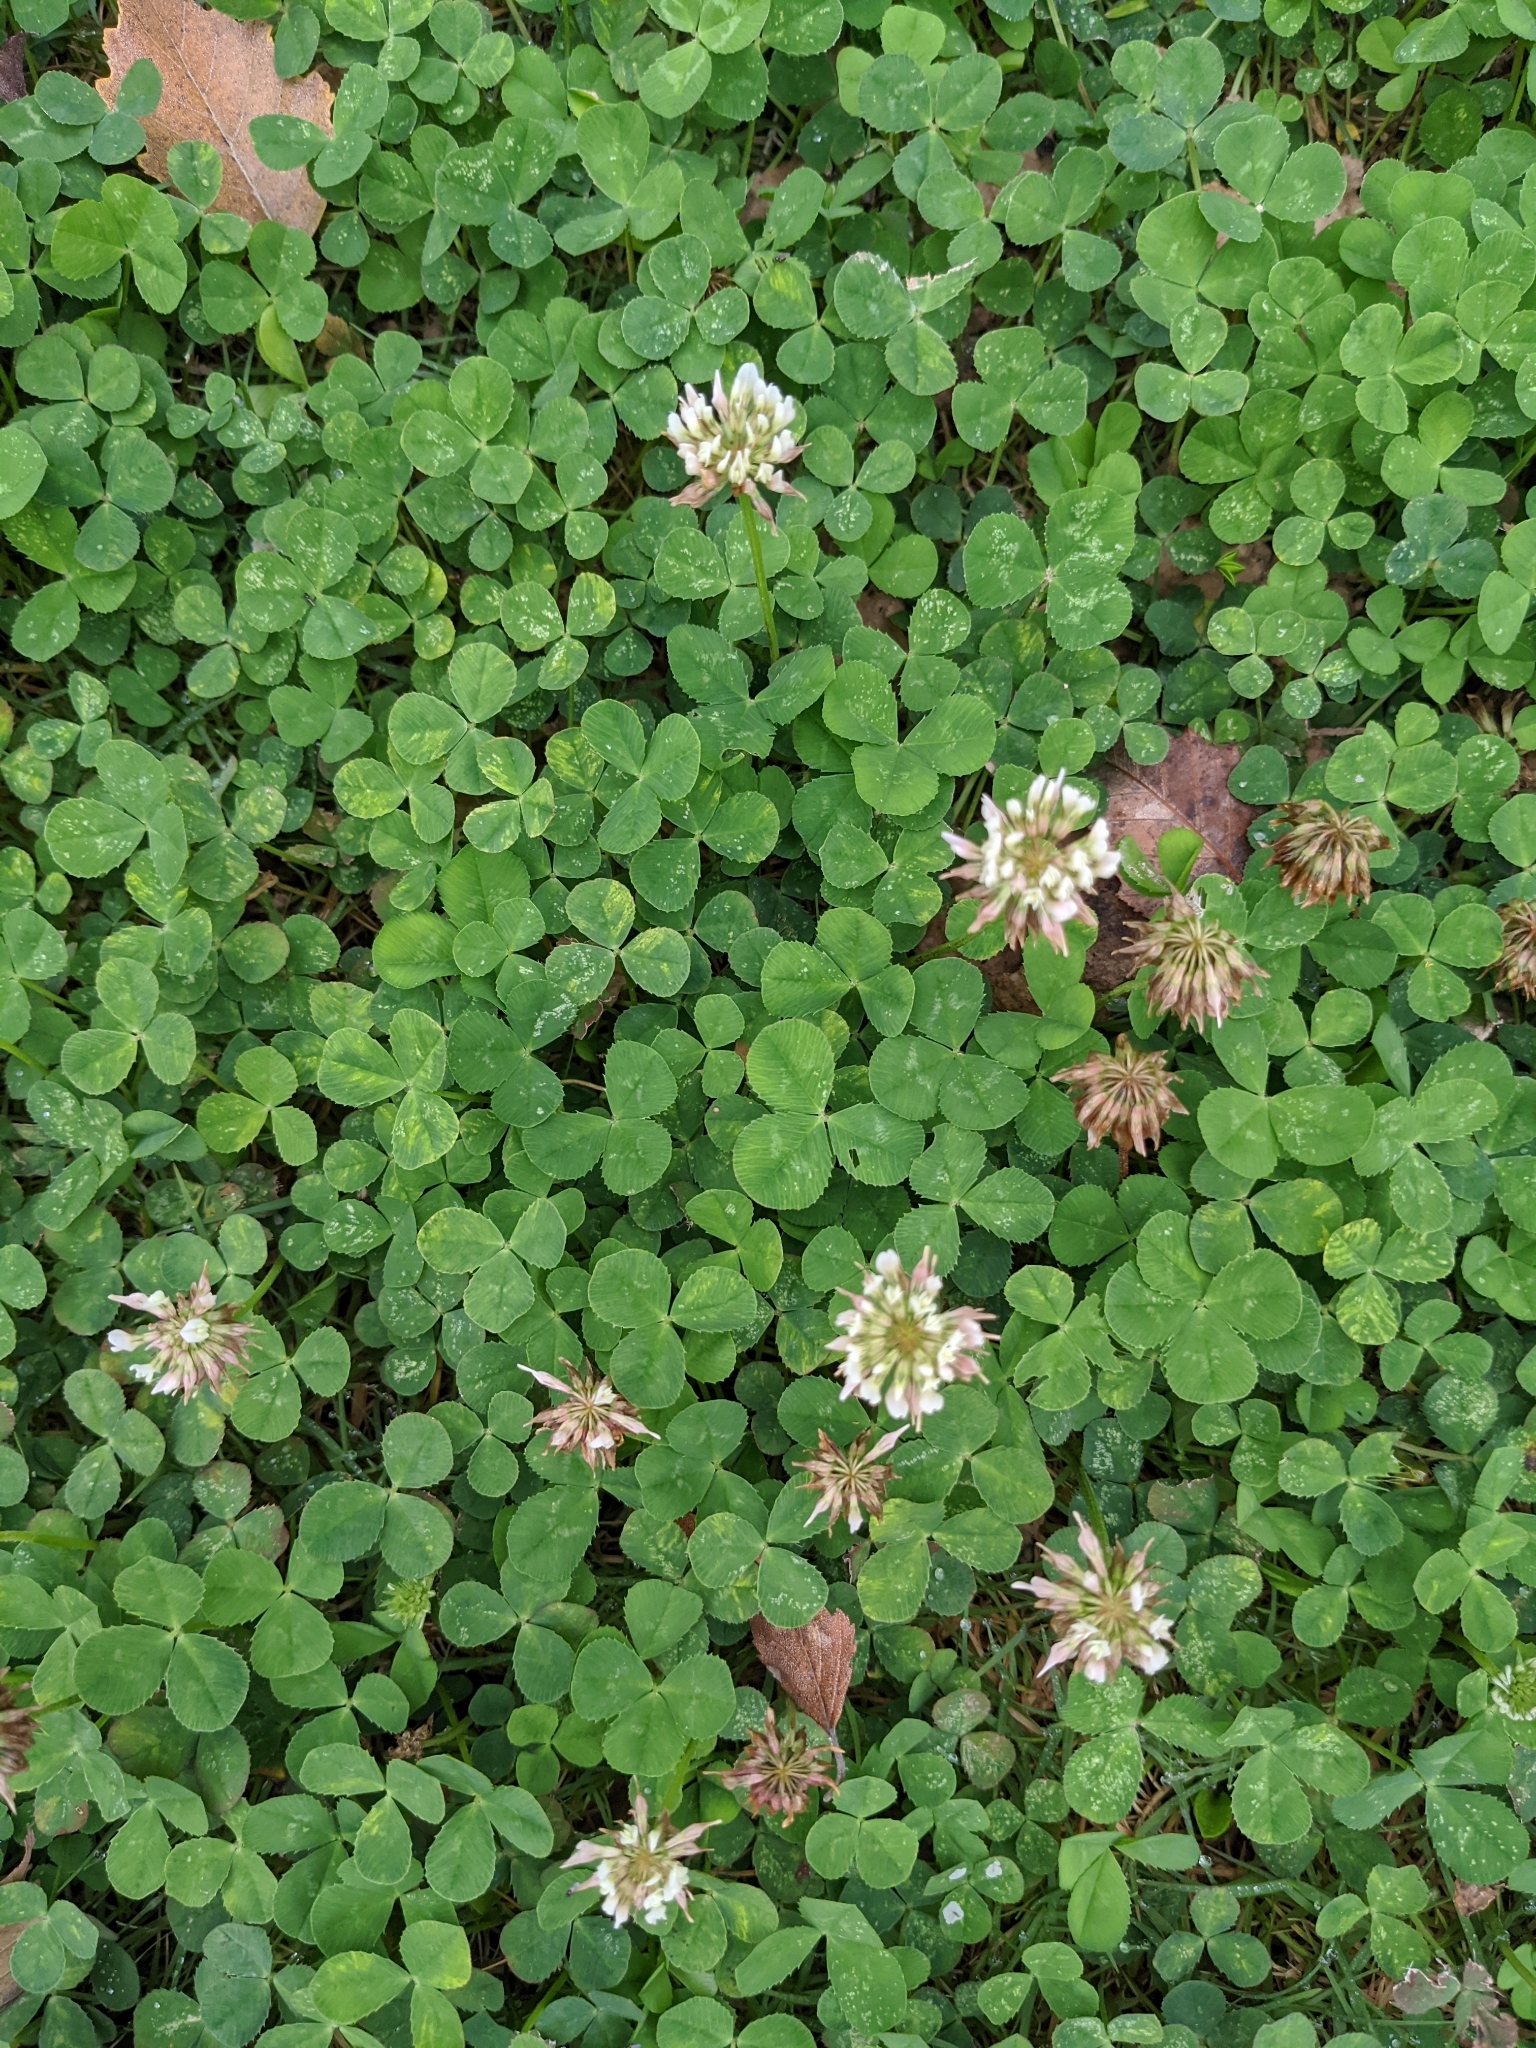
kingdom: Plantae
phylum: Tracheophyta
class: Magnoliopsida
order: Fabales
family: Fabaceae
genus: Trifolium
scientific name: Trifolium repens
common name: White clover
